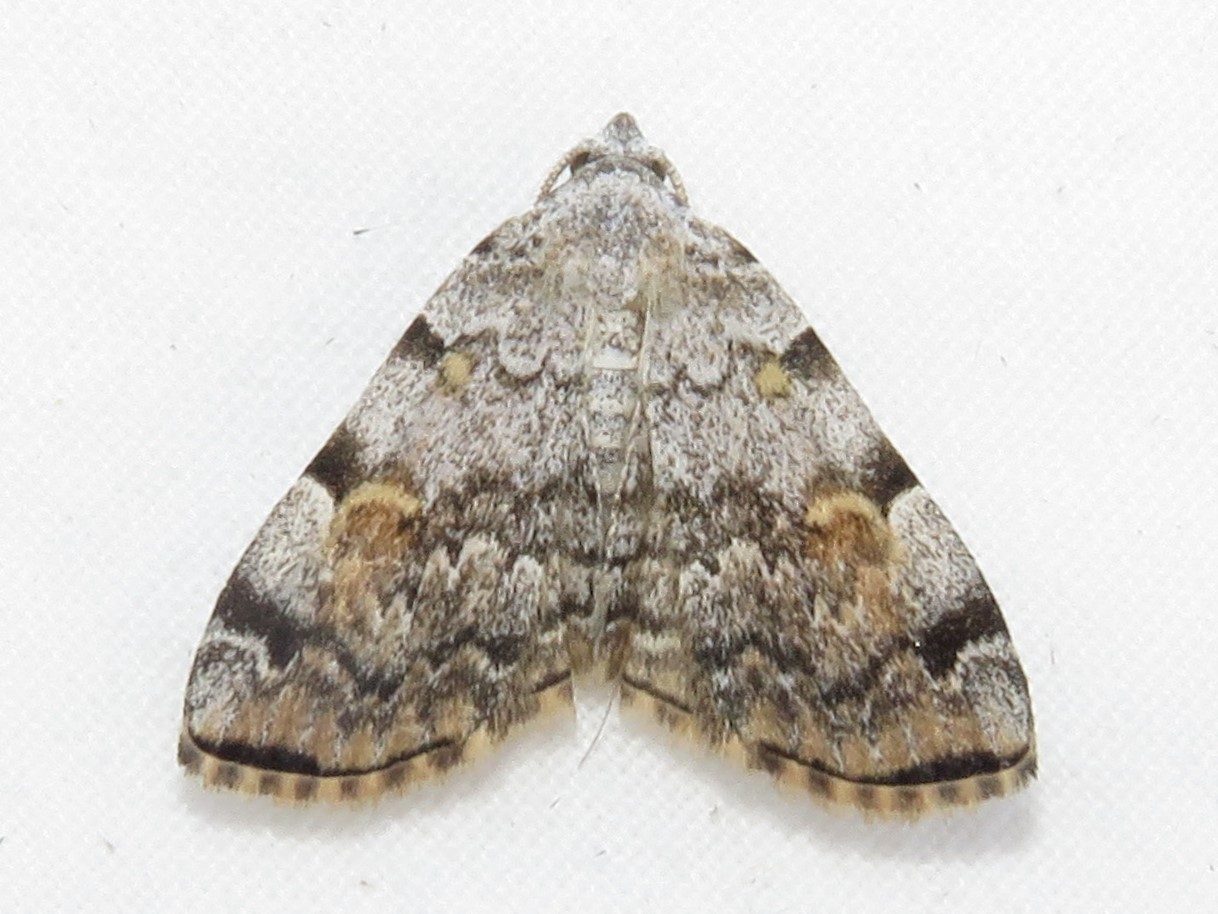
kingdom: Animalia
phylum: Arthropoda
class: Insecta
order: Lepidoptera
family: Erebidae
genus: Idia
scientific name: Idia americalis
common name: American idia moth
